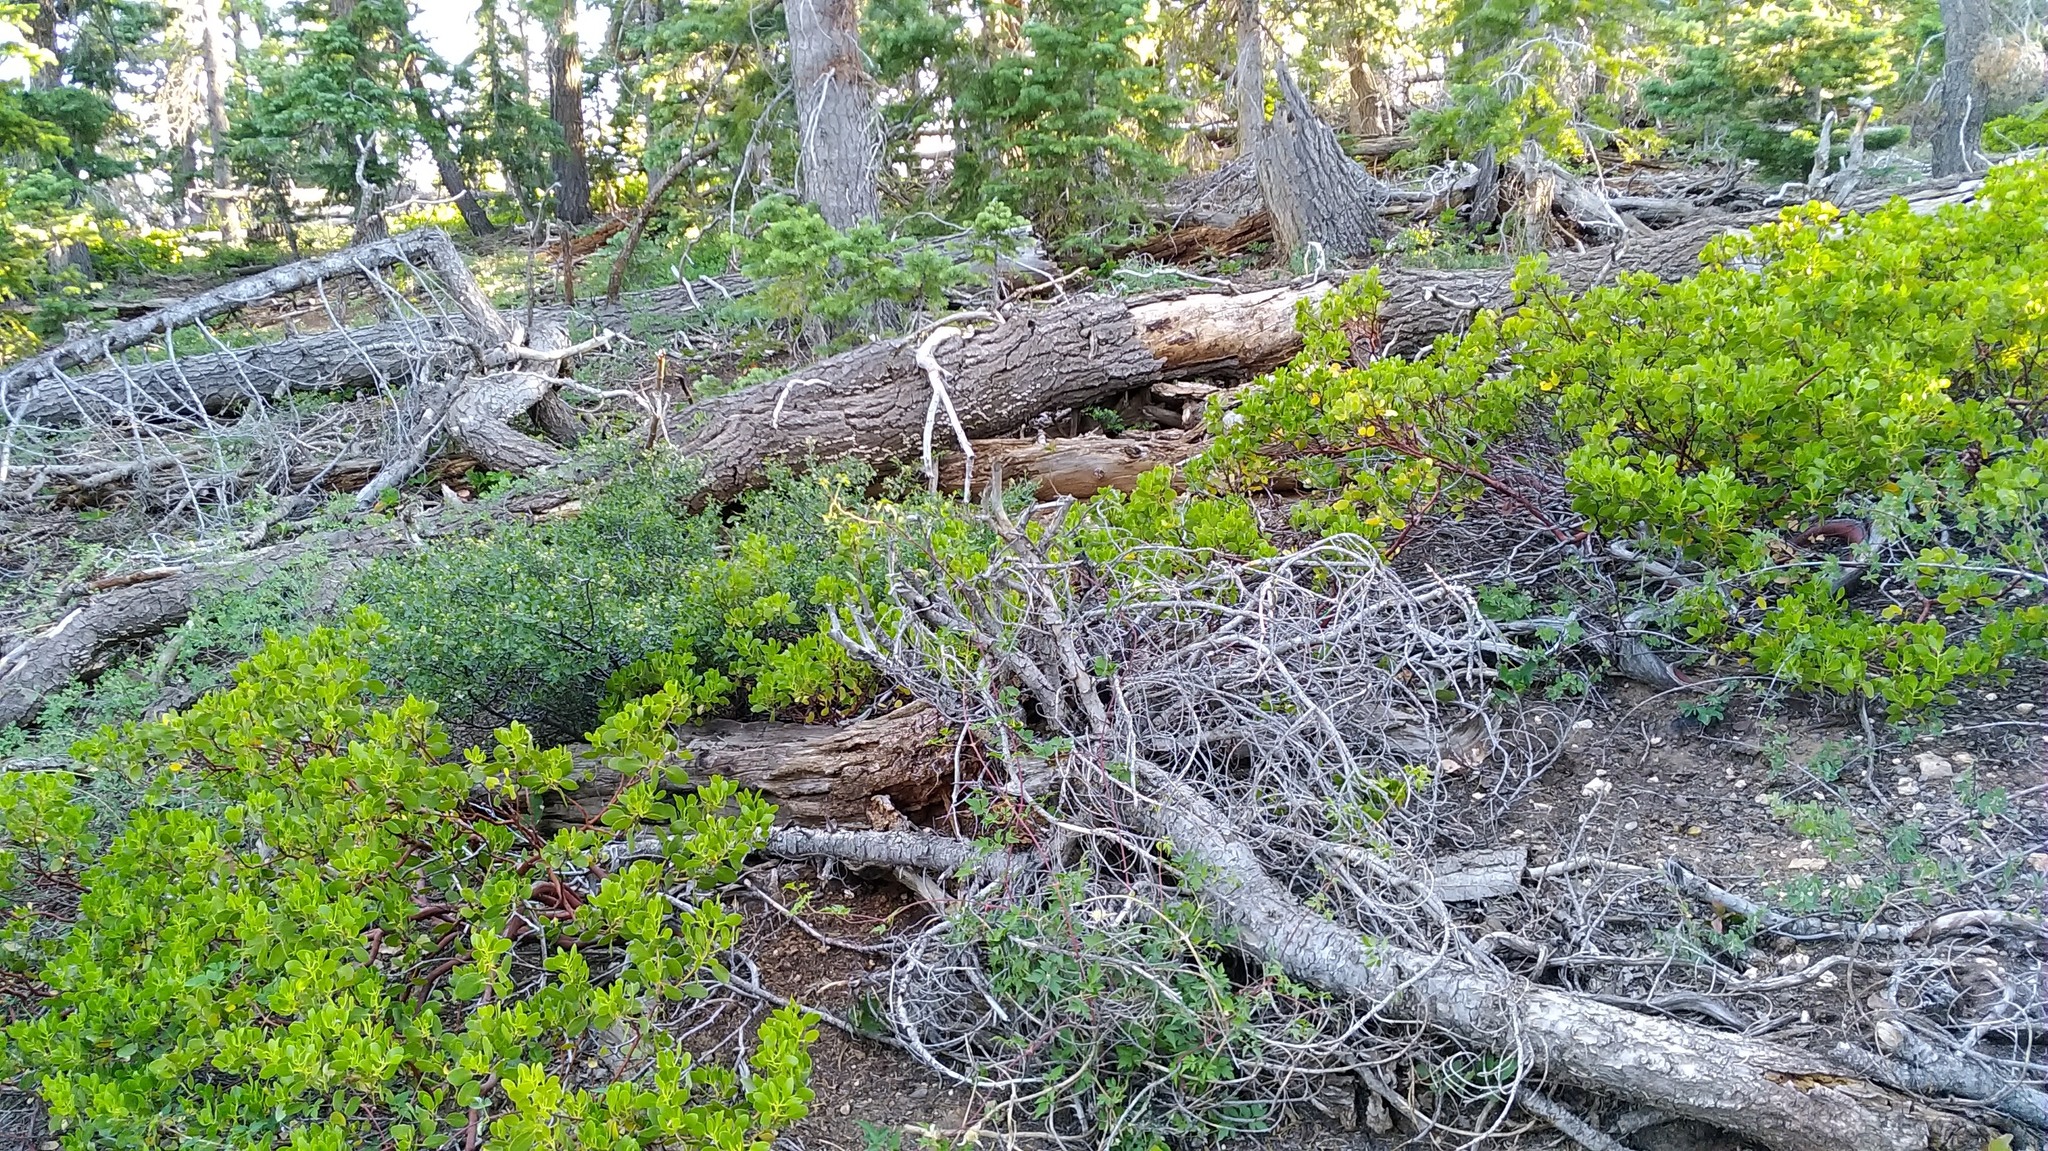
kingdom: Plantae
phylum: Tracheophyta
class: Magnoliopsida
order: Ericales
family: Ericaceae
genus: Arctostaphylos
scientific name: Arctostaphylos patula
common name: Green-leaf manzanita
